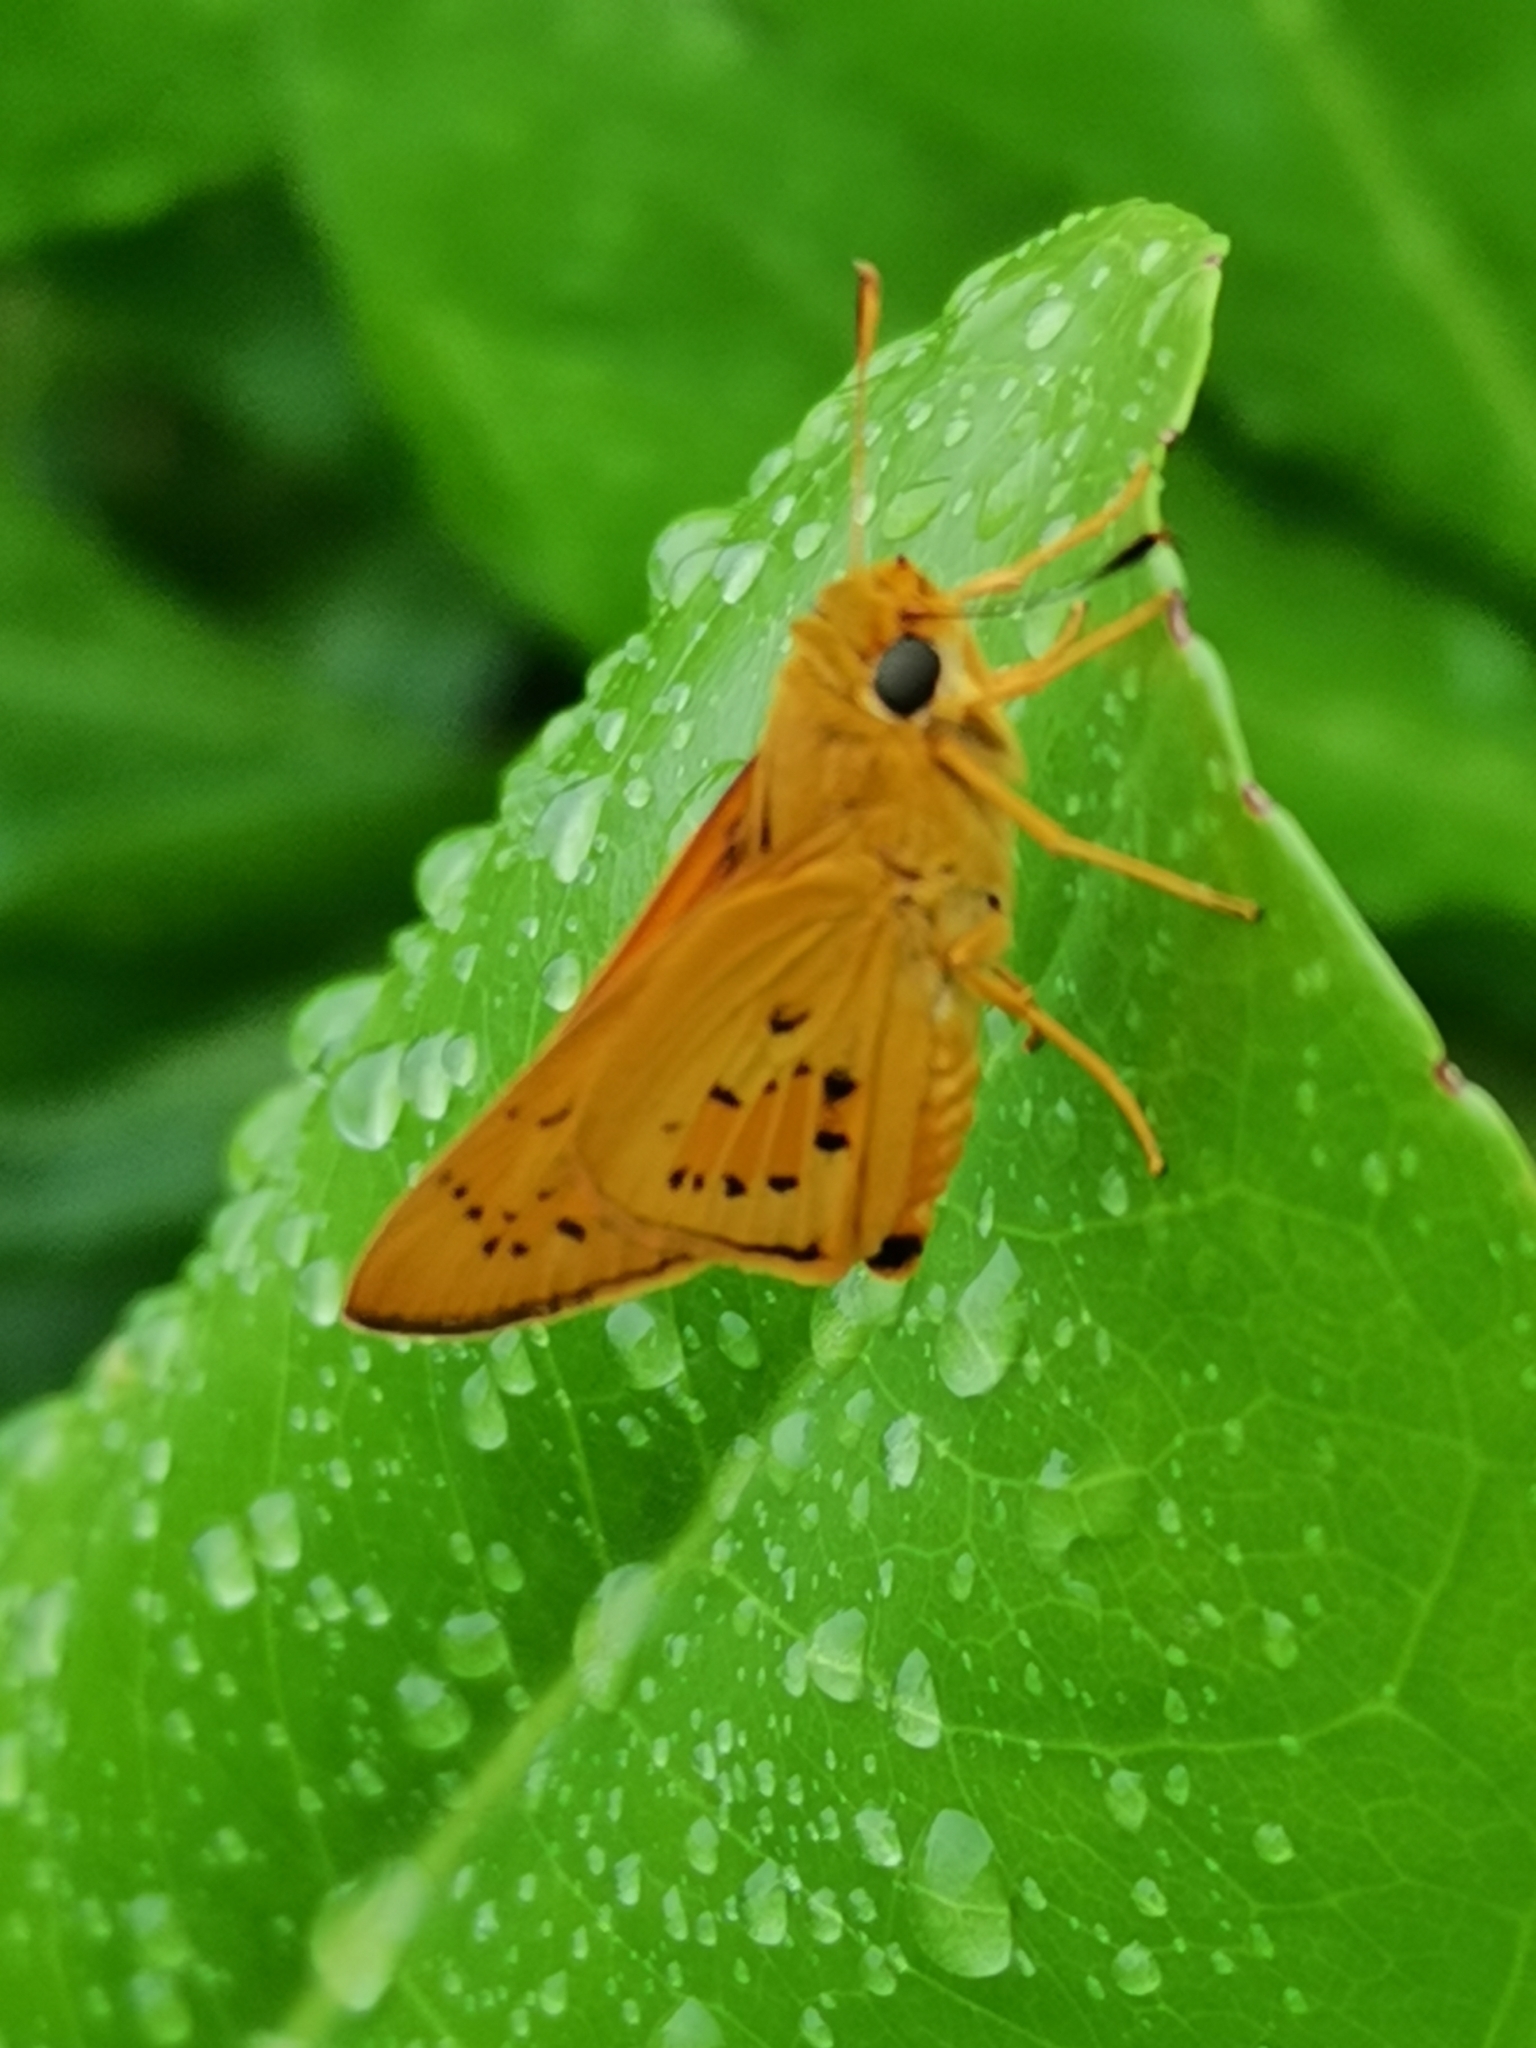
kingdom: Animalia
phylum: Arthropoda
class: Insecta
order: Lepidoptera
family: Hesperiidae
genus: Cephrenes
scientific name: Cephrenes trichopepla
